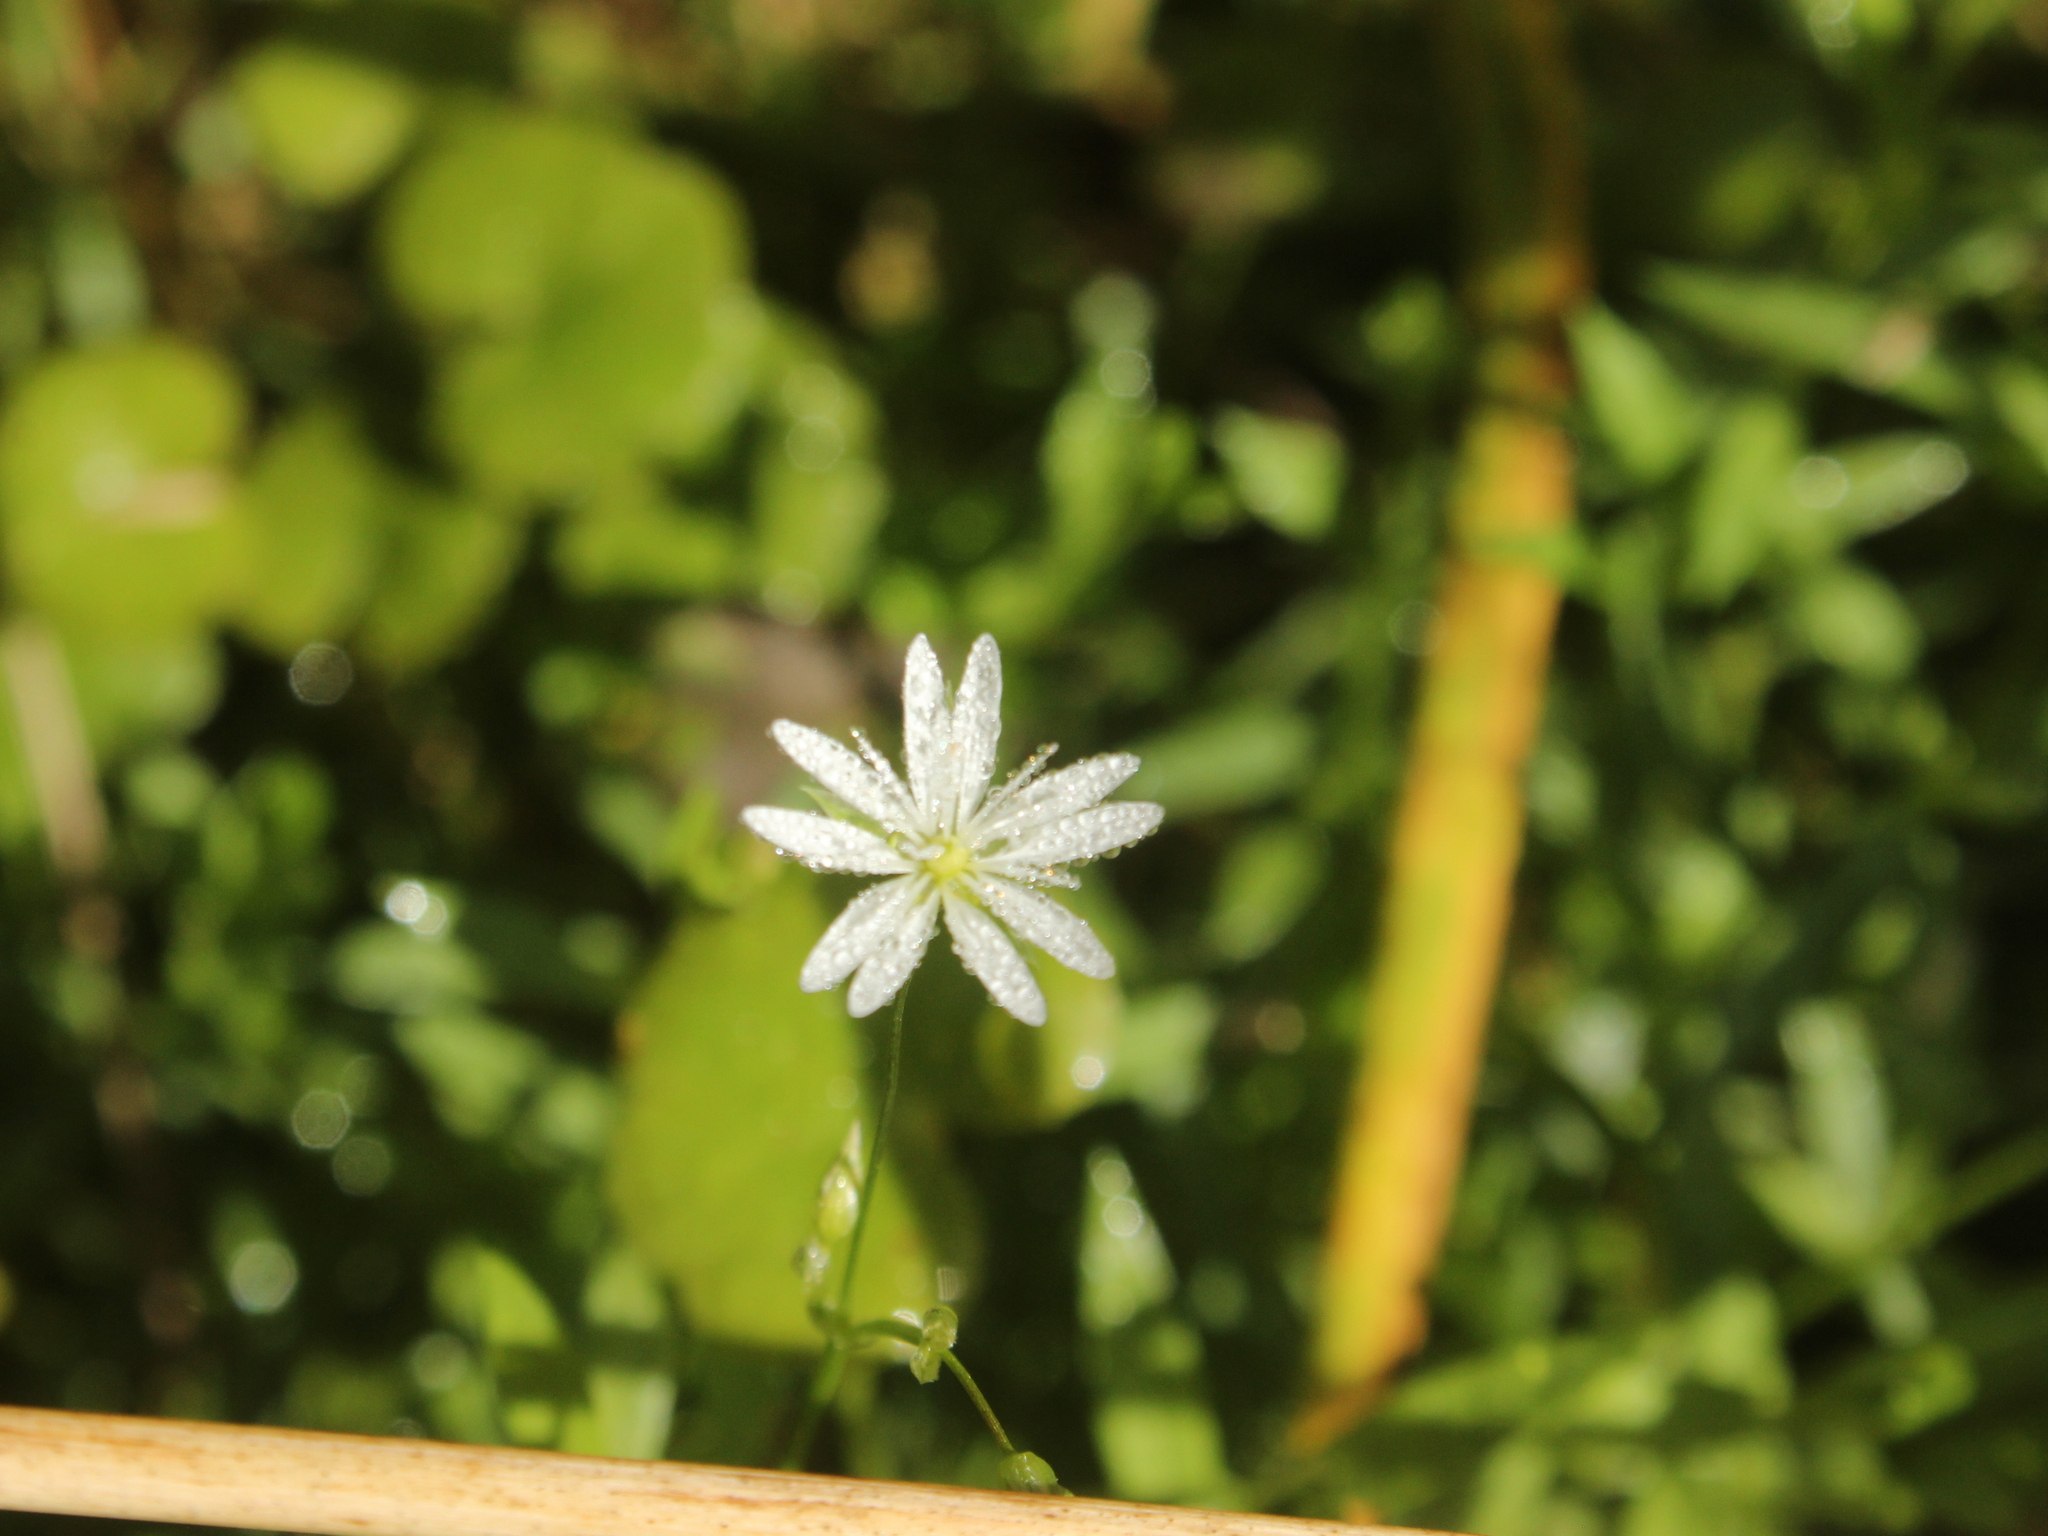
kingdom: Plantae
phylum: Tracheophyta
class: Magnoliopsida
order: Caryophyllales
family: Caryophyllaceae
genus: Stellaria
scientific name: Stellaria graminea
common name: Grass-like starwort
